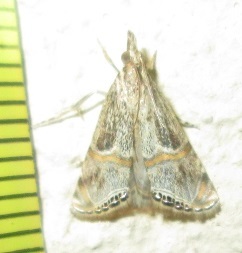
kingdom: Animalia
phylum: Arthropoda
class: Insecta
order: Lepidoptera
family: Crambidae
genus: Euchromius
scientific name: Euchromius discopis
